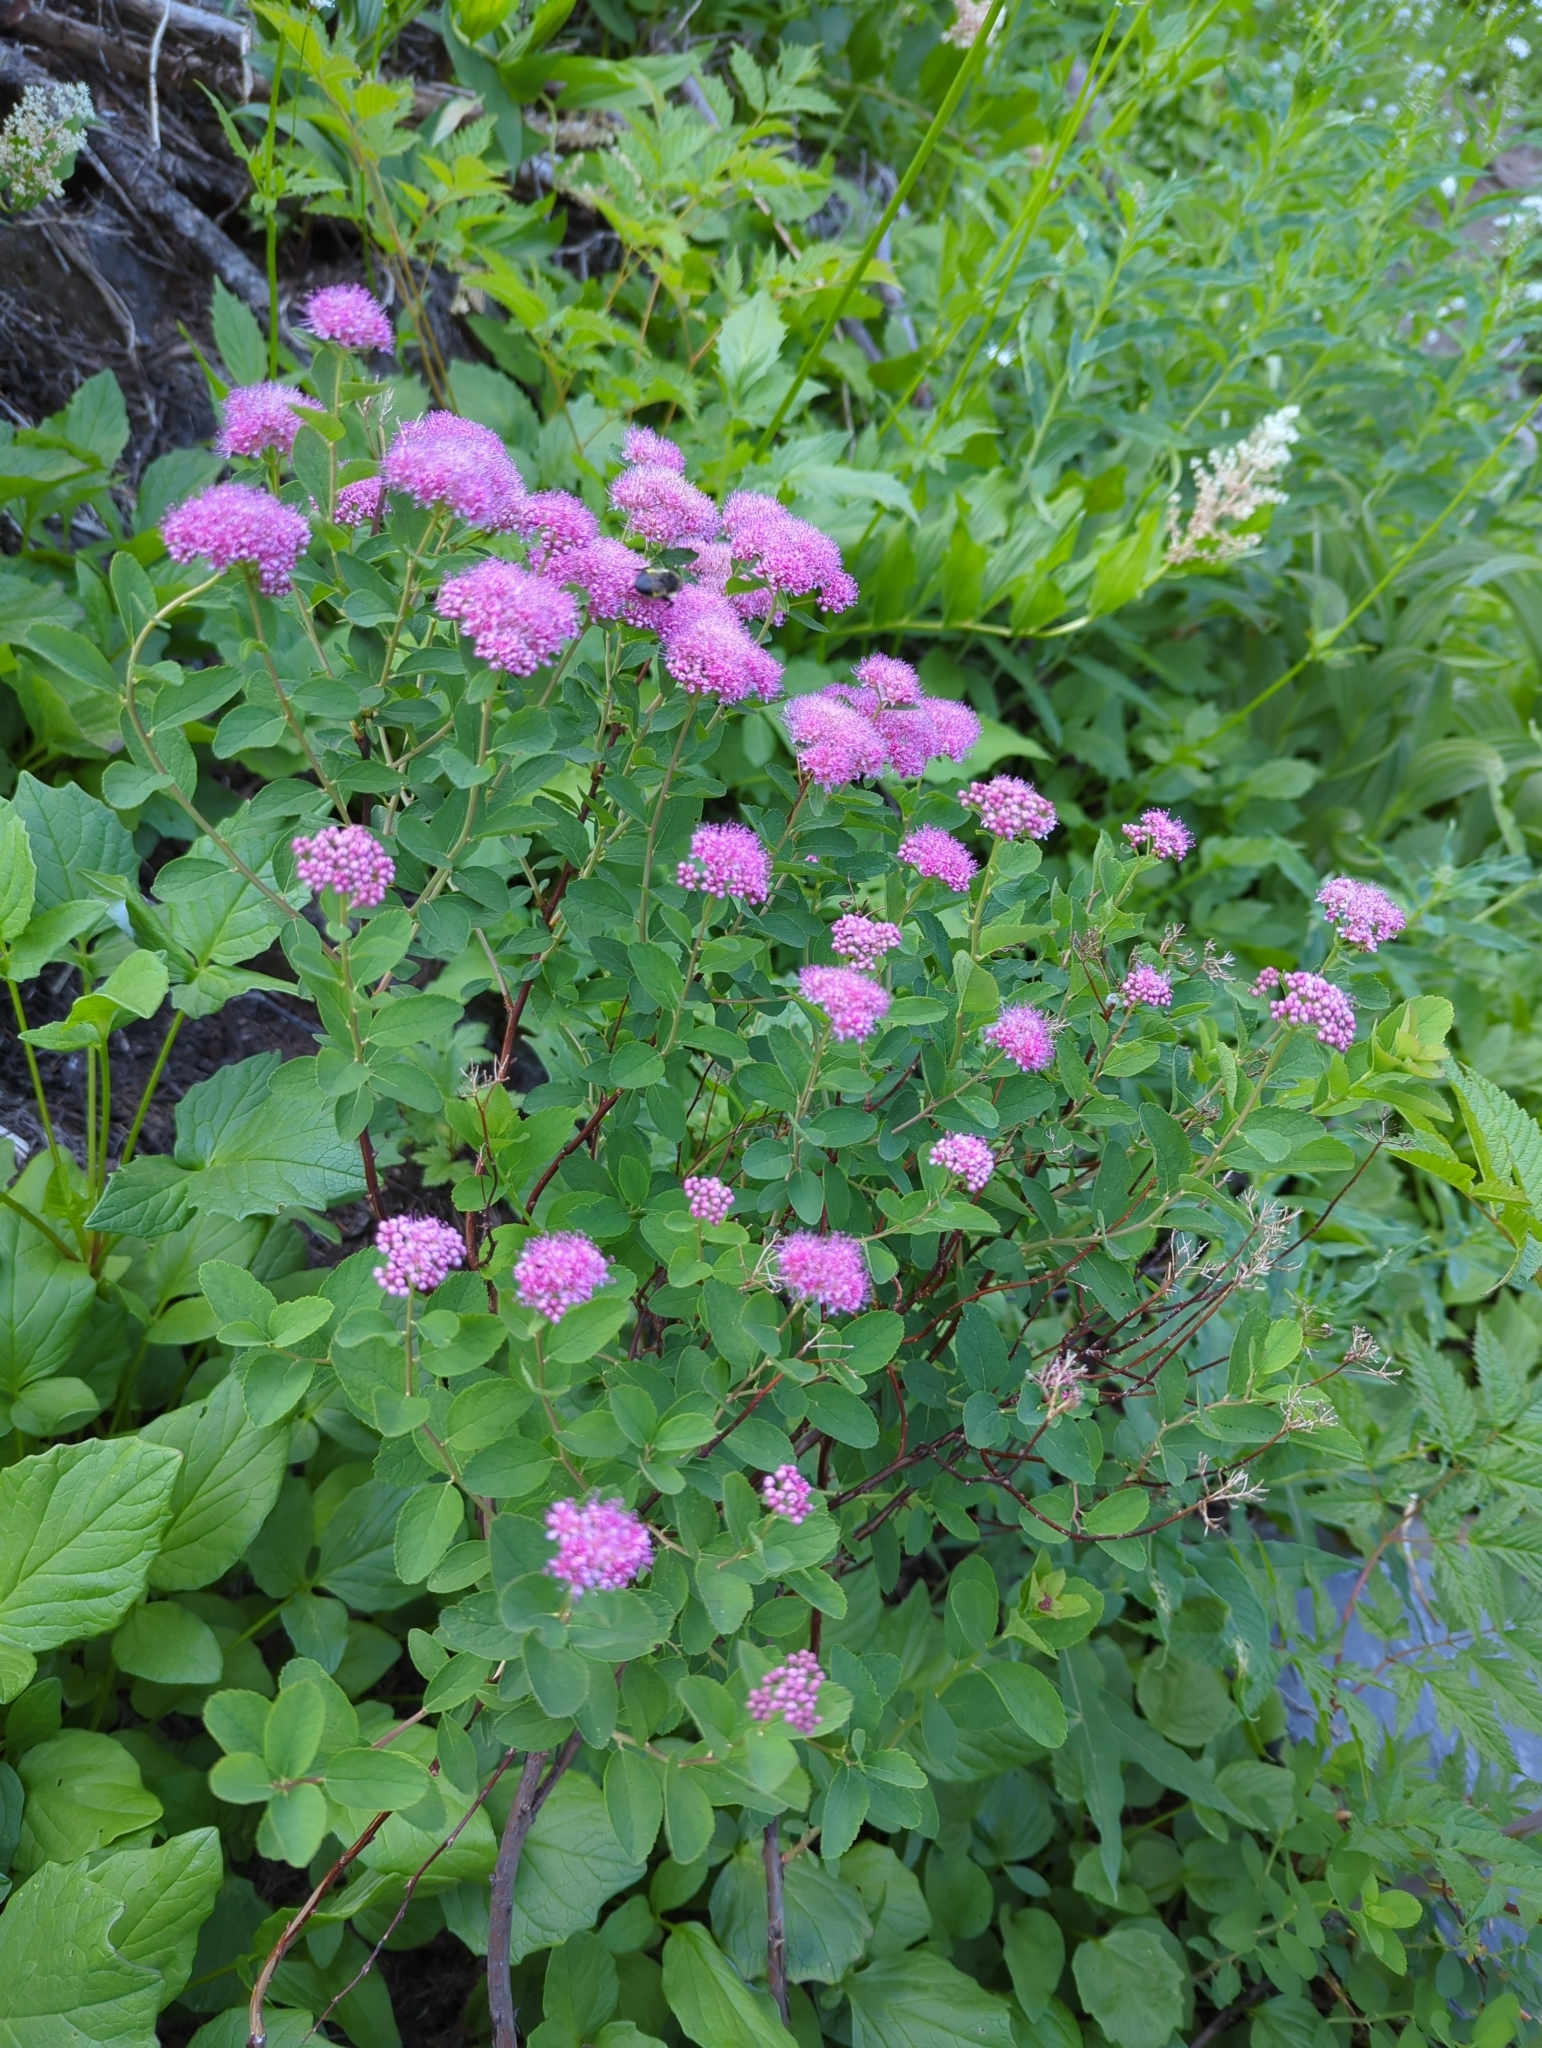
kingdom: Plantae
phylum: Tracheophyta
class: Magnoliopsida
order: Rosales
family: Rosaceae
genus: Spiraea
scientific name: Spiraea splendens
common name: Subalpine meadowsweet
